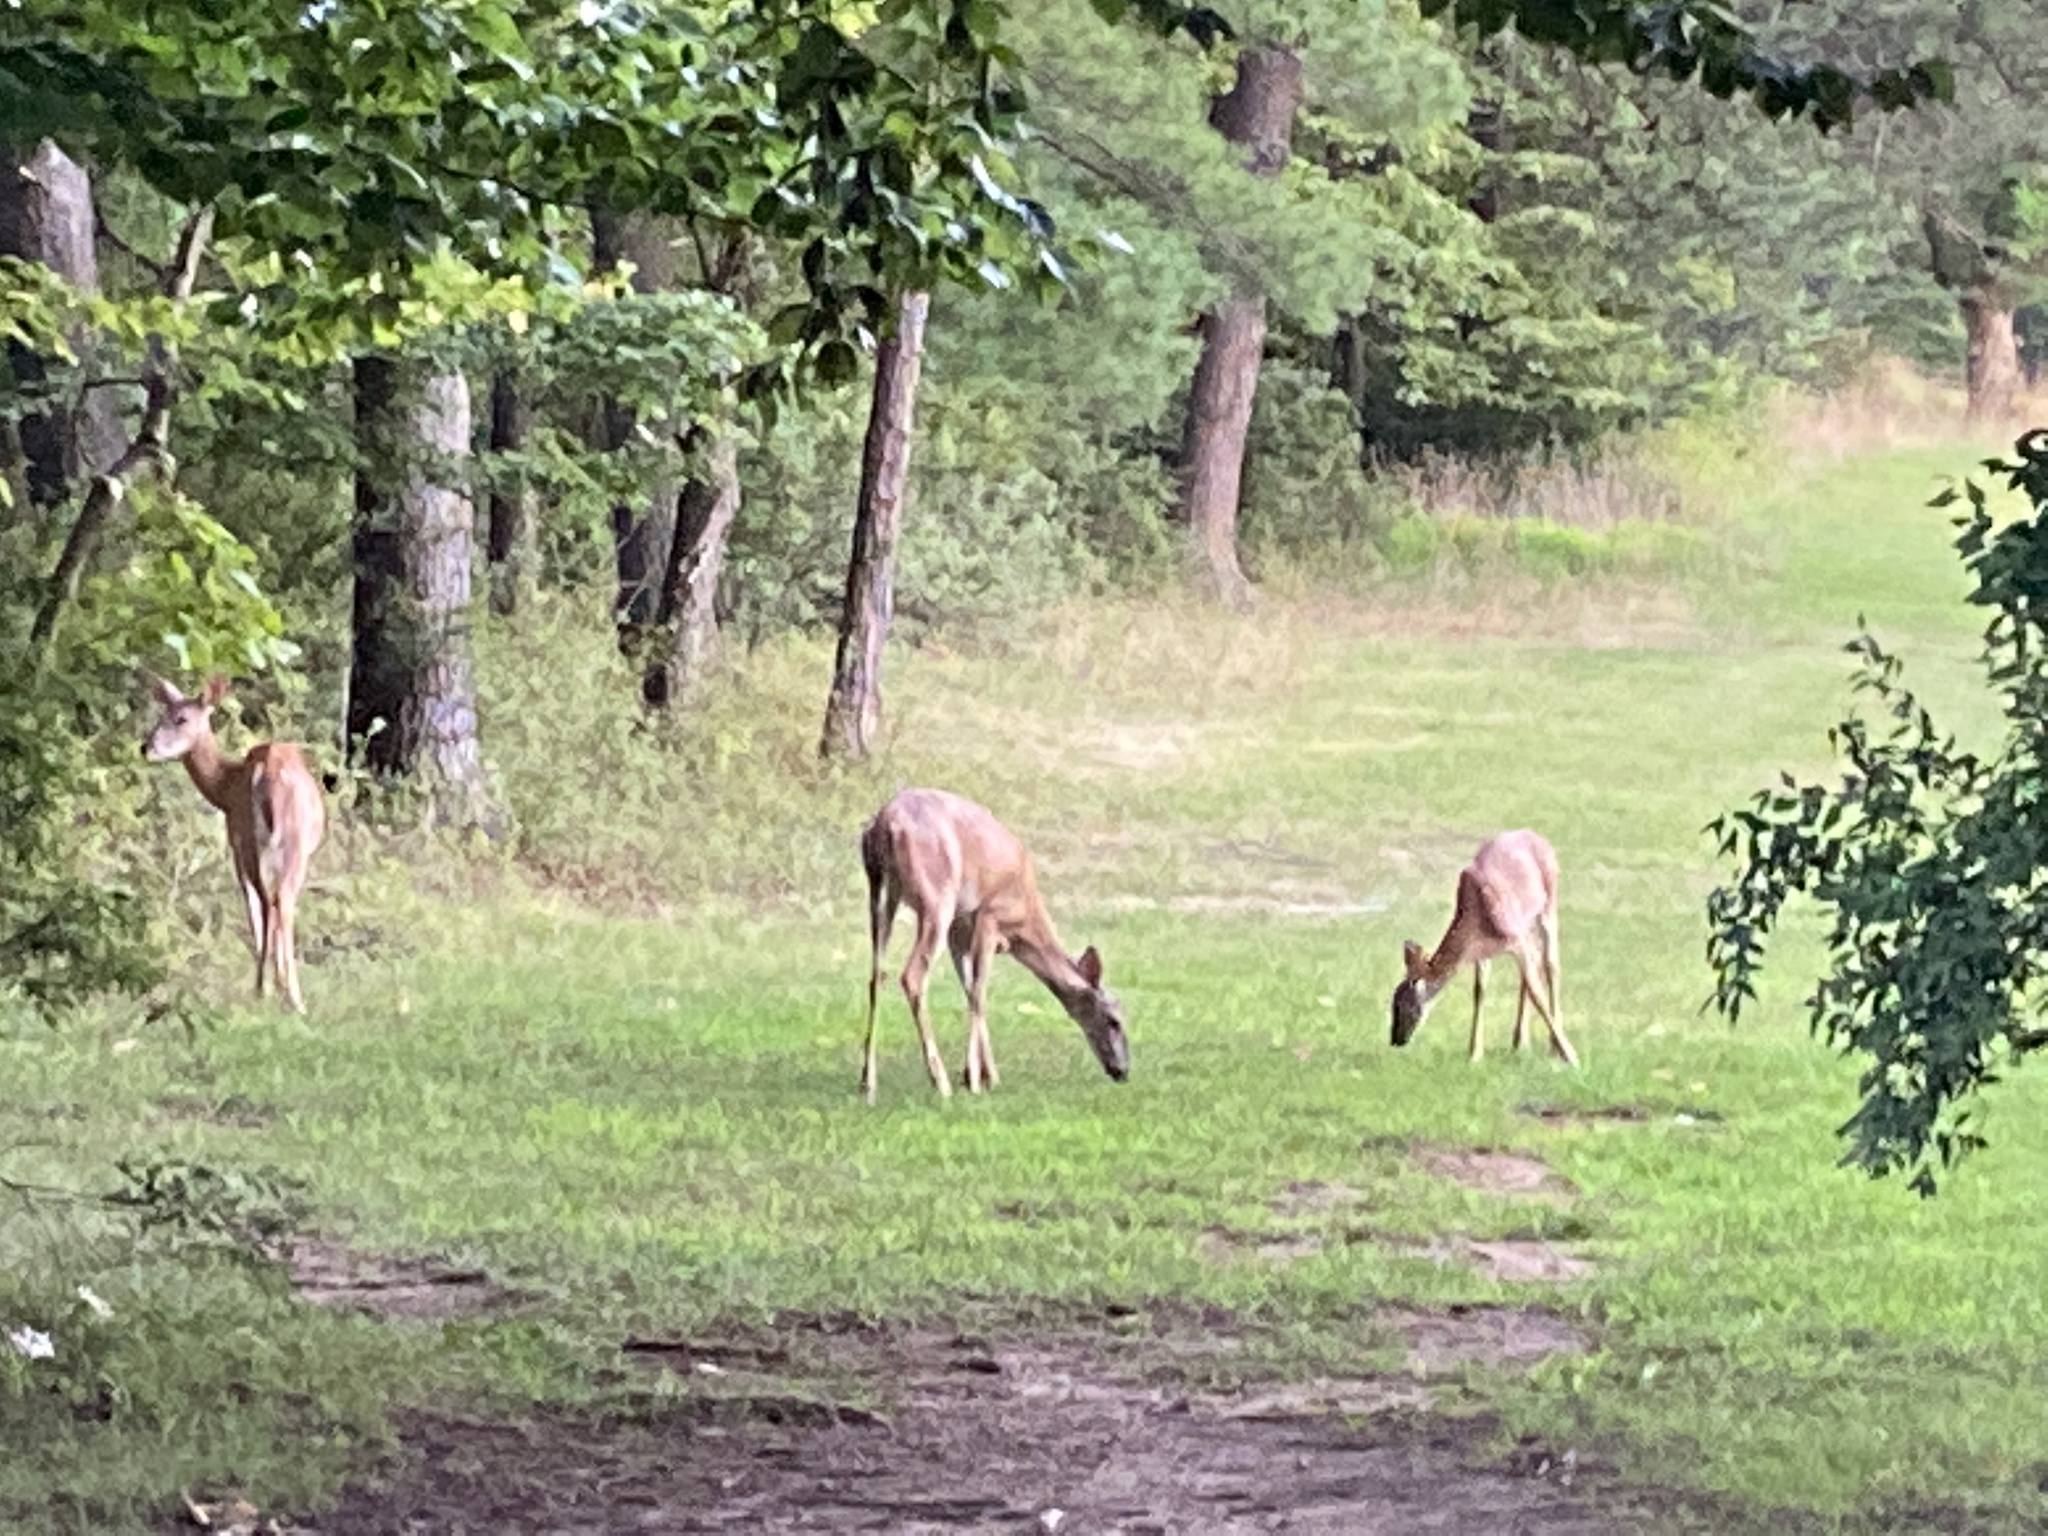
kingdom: Animalia
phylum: Chordata
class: Mammalia
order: Artiodactyla
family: Cervidae
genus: Odocoileus
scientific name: Odocoileus virginianus
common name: White-tailed deer
